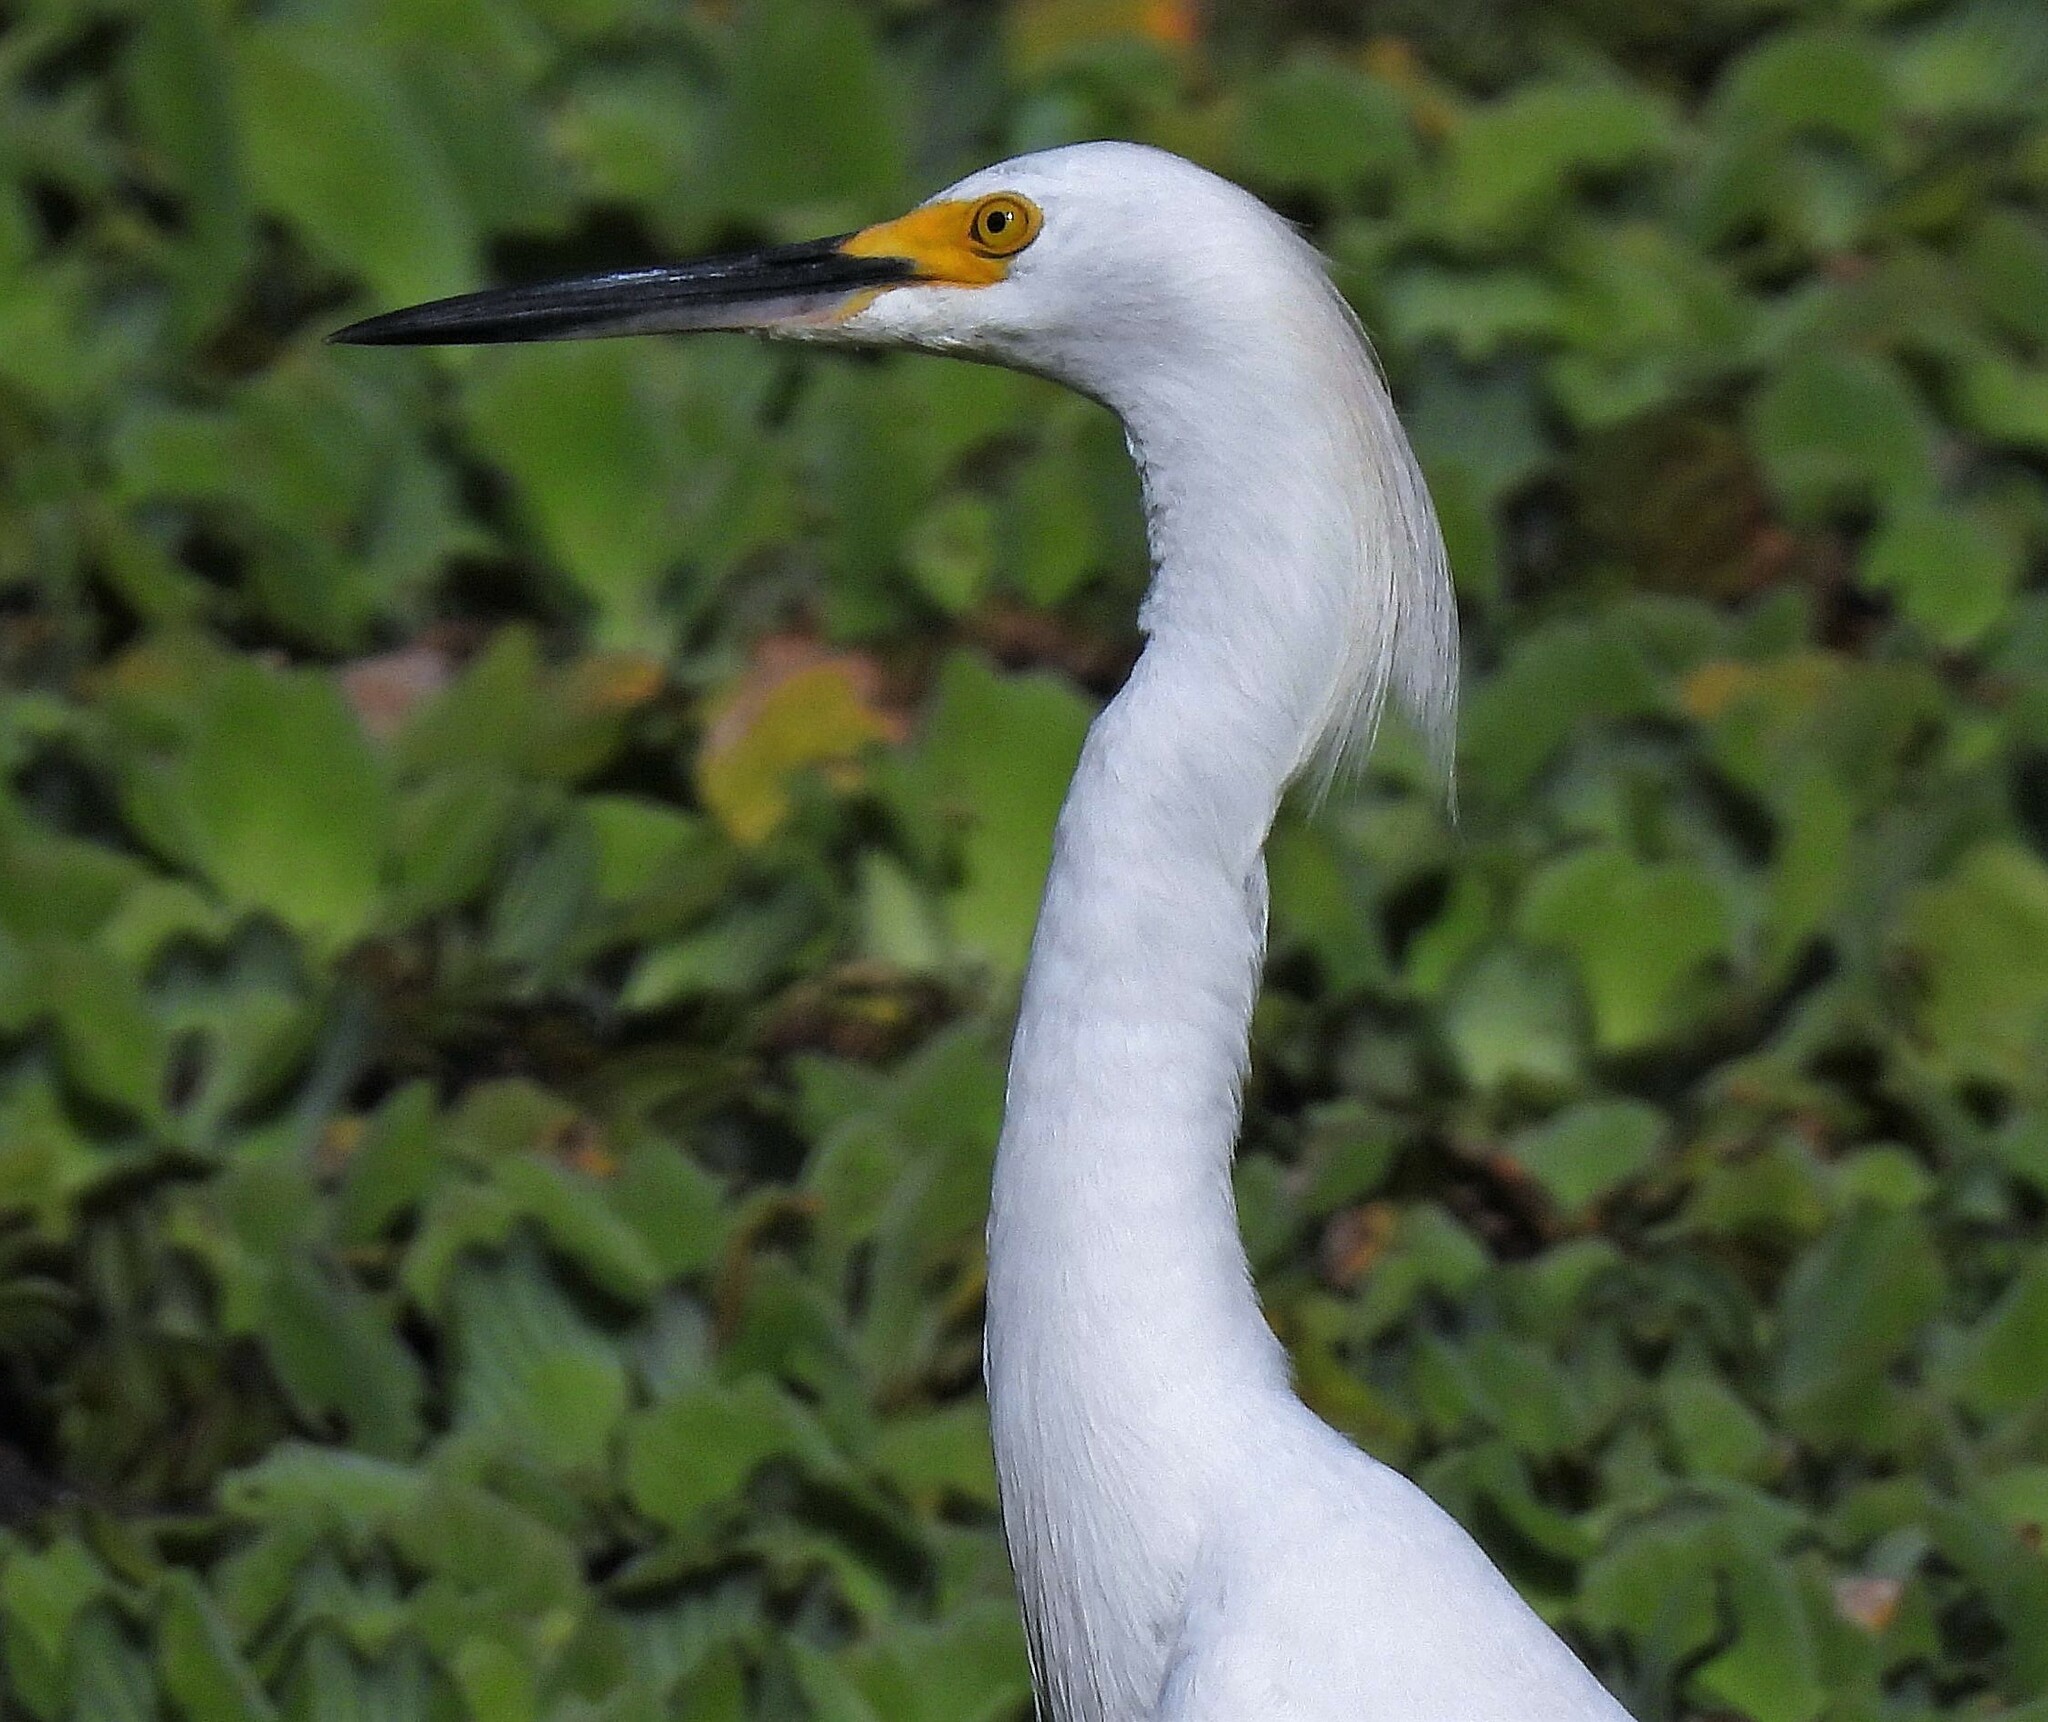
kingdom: Animalia
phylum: Chordata
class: Aves
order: Pelecaniformes
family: Ardeidae
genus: Egretta
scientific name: Egretta thula
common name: Snowy egret
